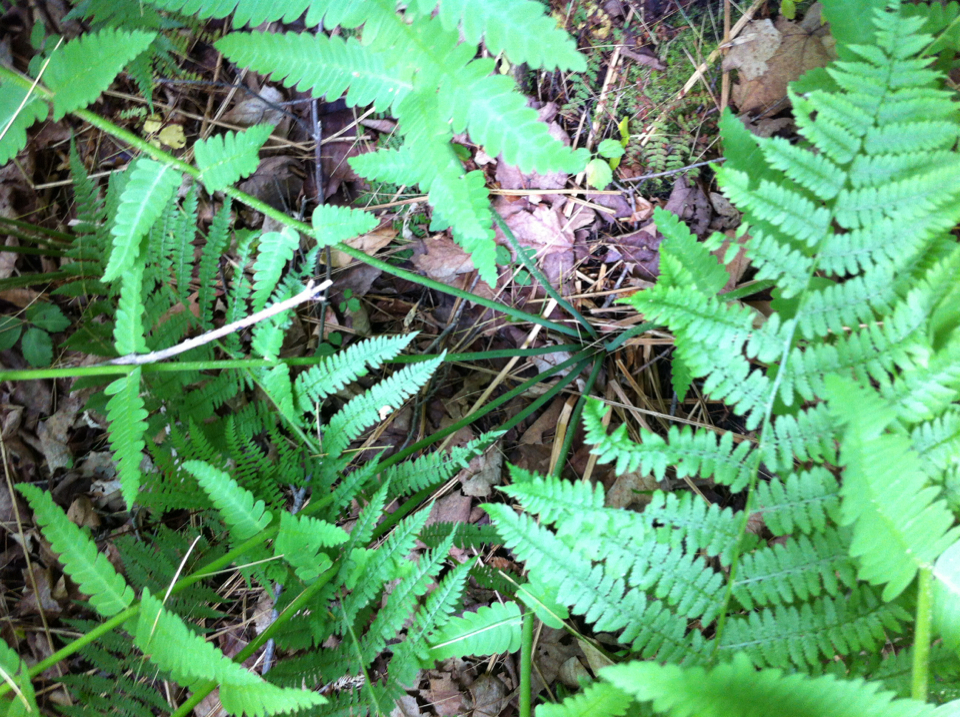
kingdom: Plantae
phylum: Tracheophyta
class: Polypodiopsida
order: Osmundales
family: Osmundaceae
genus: Claytosmunda
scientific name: Claytosmunda claytoniana
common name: Clayton's fern
